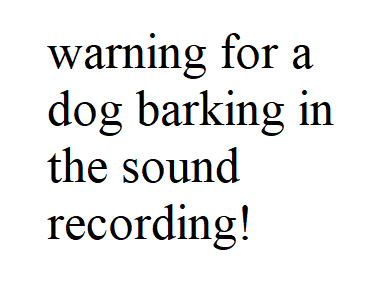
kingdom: Animalia
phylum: Chordata
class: Aves
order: Passeriformes
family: Cardinalidae
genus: Cardinalis
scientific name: Cardinalis cardinalis
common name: Northern cardinal
